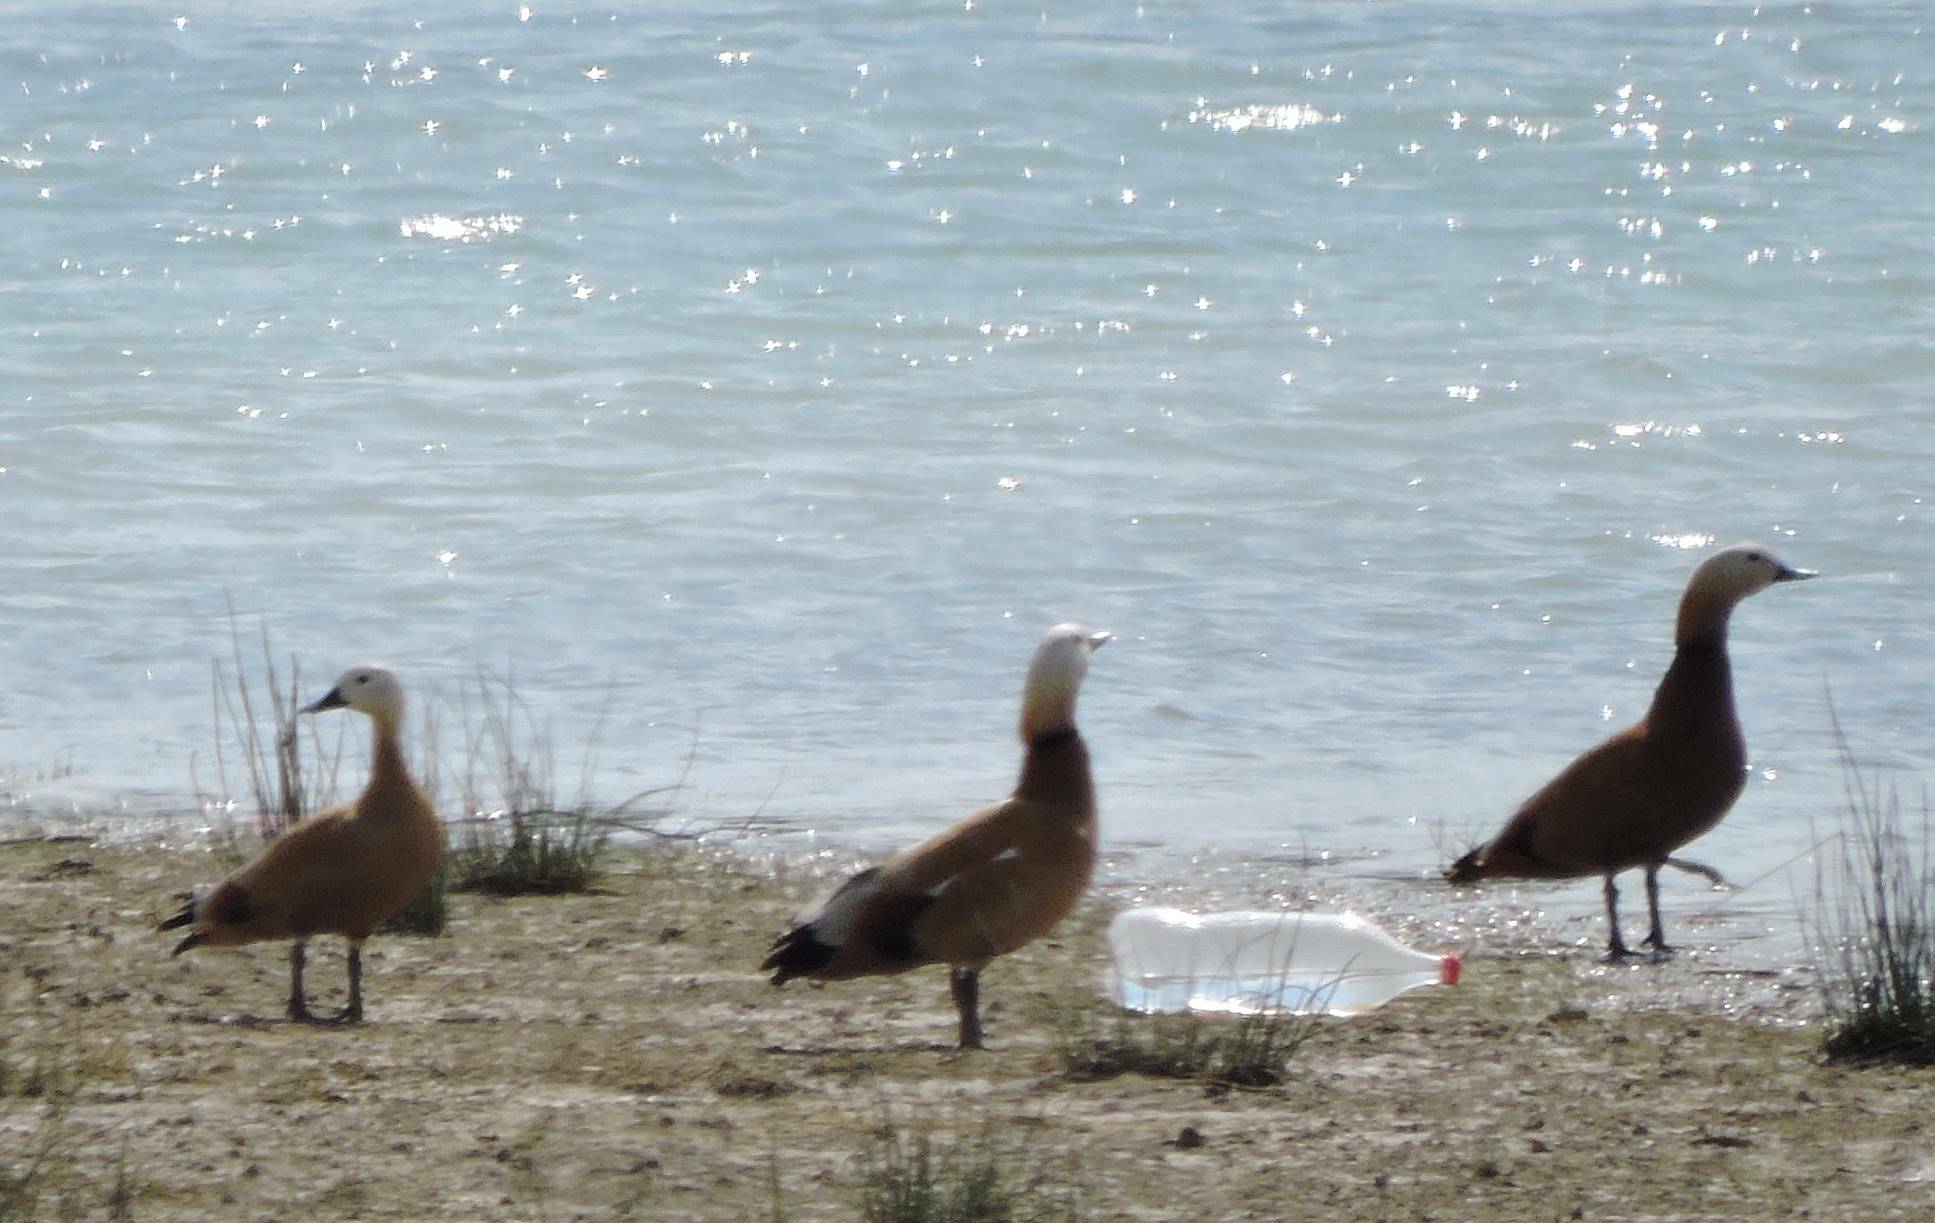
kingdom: Animalia
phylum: Chordata
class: Aves
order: Anseriformes
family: Anatidae
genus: Tadorna
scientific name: Tadorna ferruginea
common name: Ruddy shelduck
